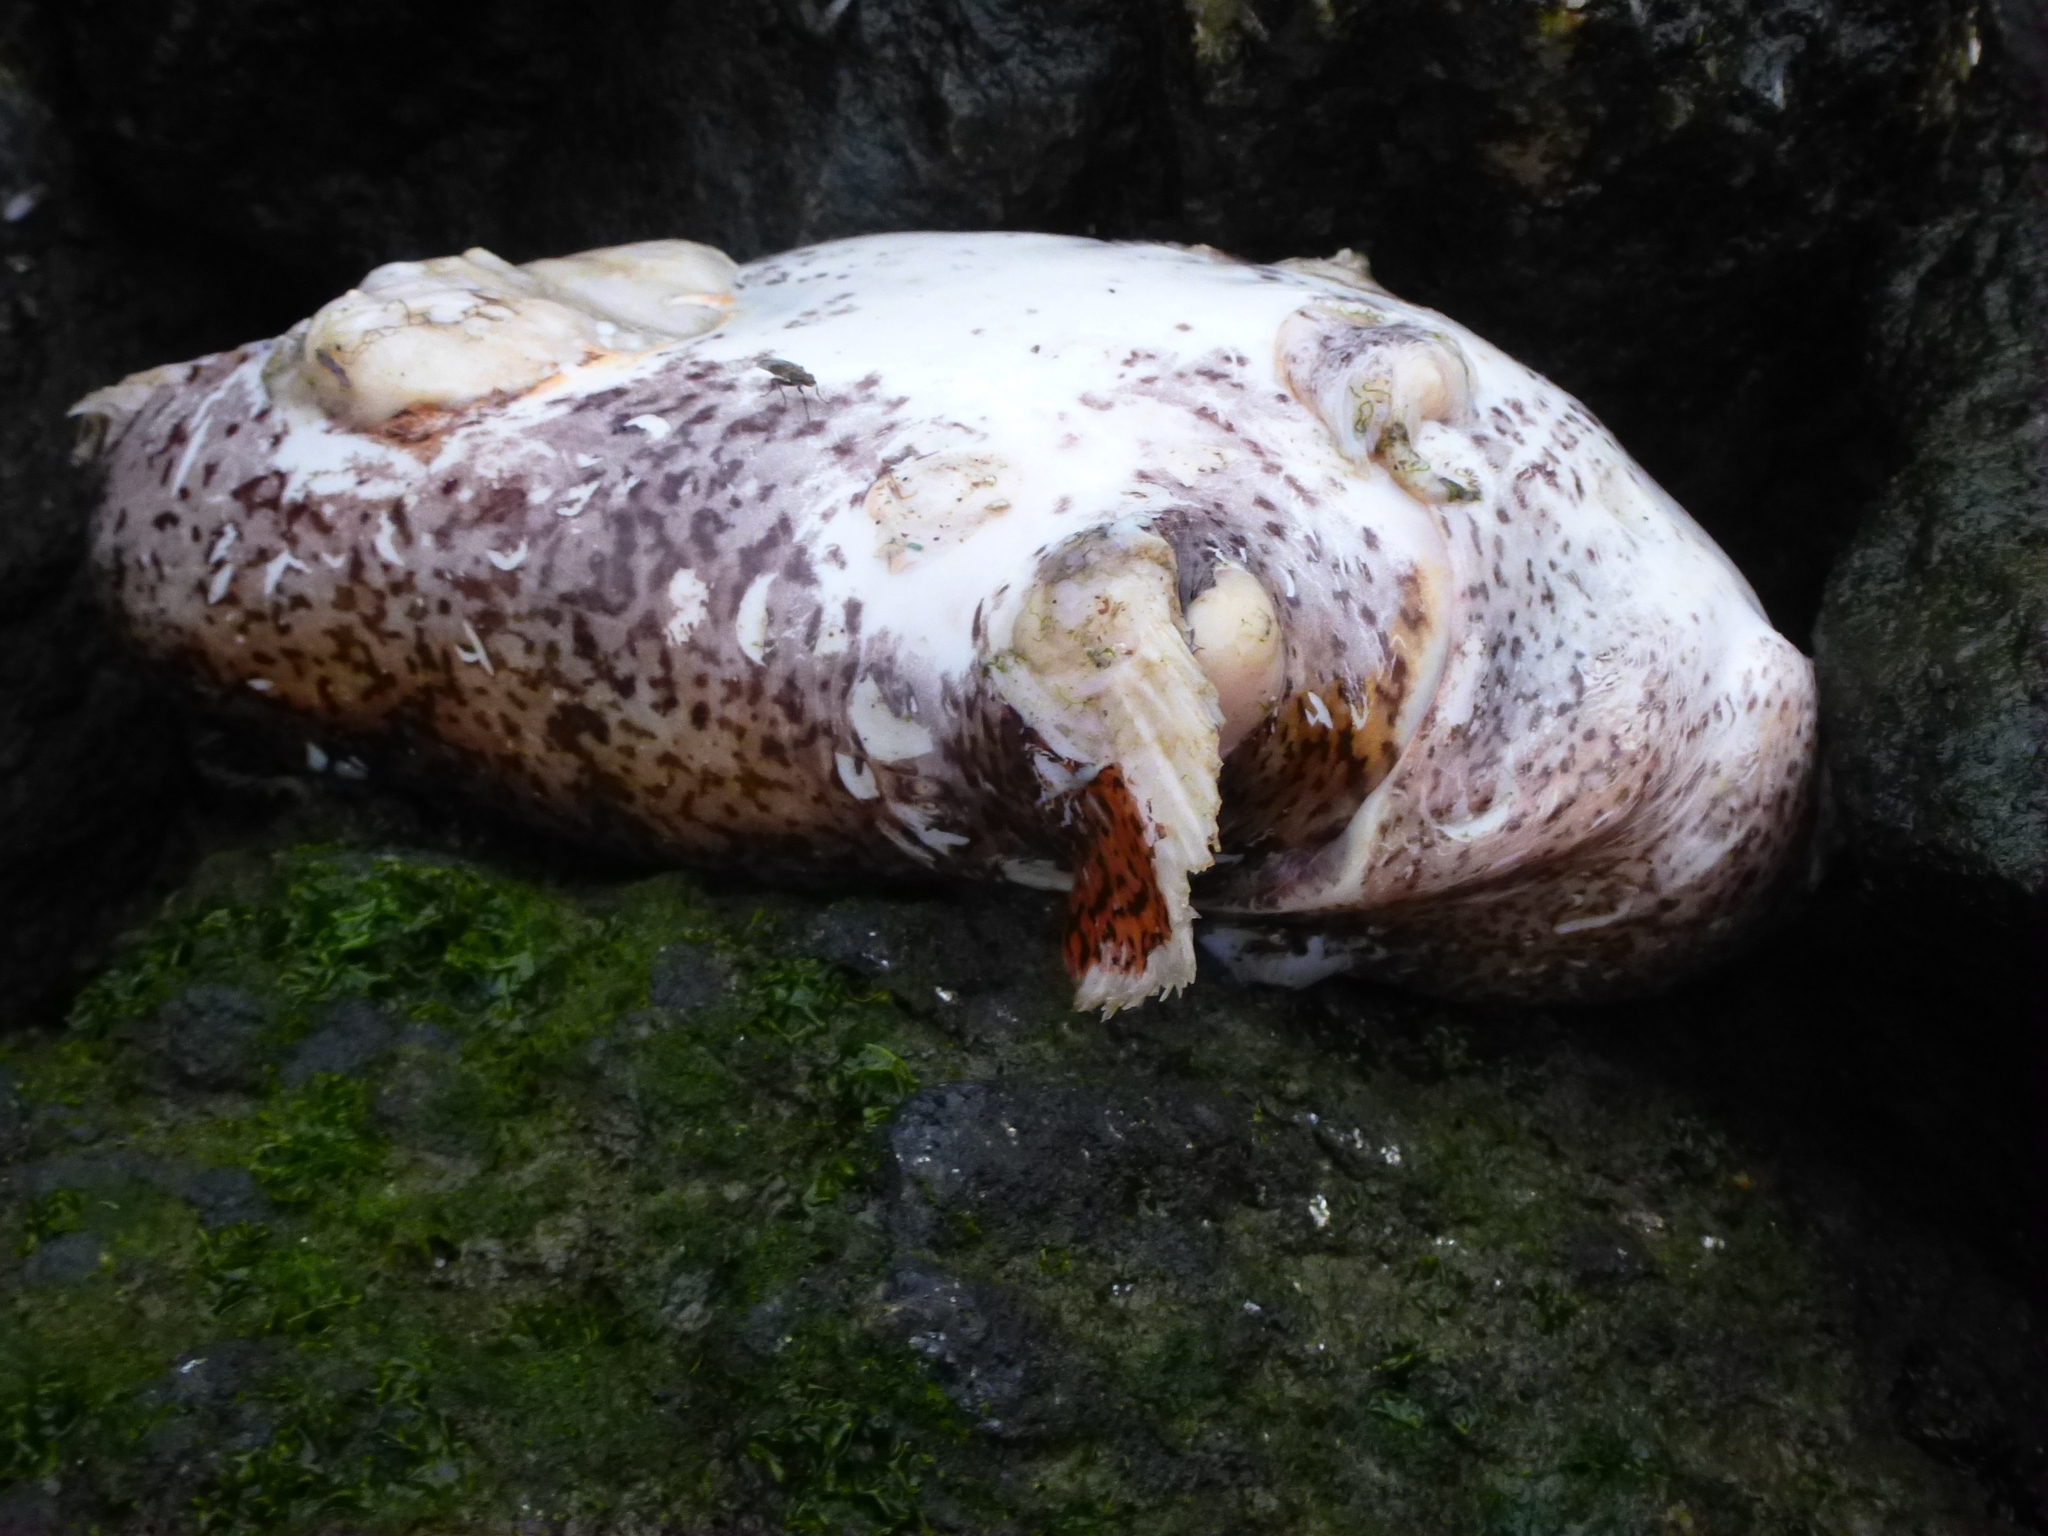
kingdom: Animalia
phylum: Chordata
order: Batrachoidiformes
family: Batrachoididae
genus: Opsanus
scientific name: Opsanus tau
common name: Oyster toadfish
